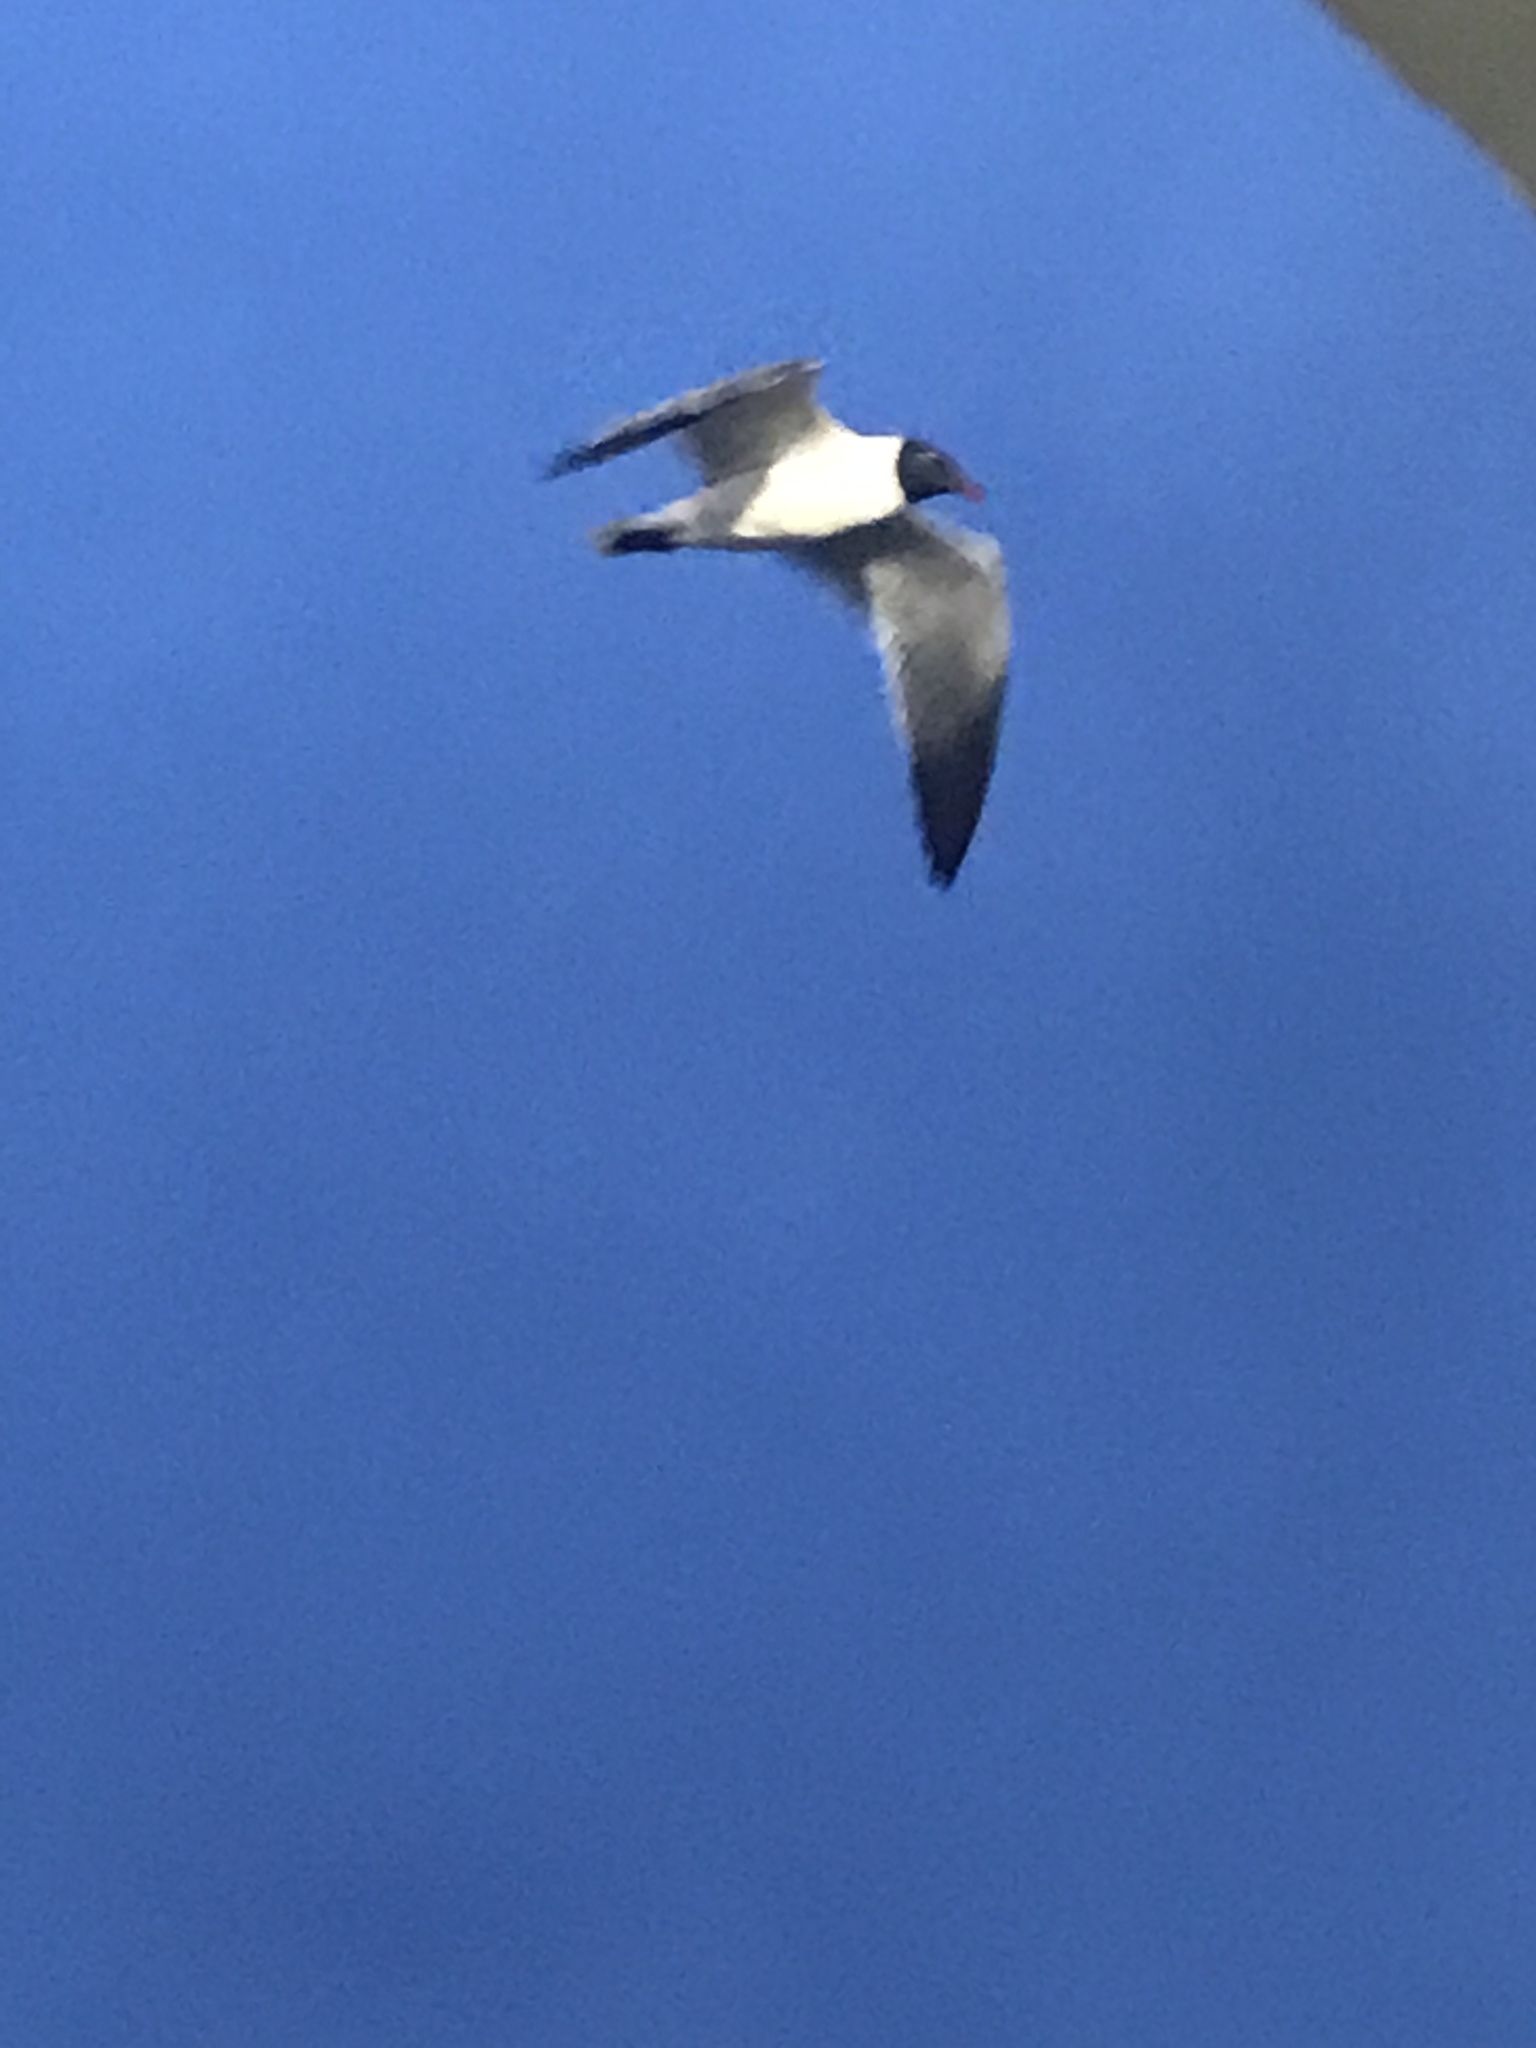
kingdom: Animalia
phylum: Chordata
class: Aves
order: Charadriiformes
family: Laridae
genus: Leucophaeus
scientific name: Leucophaeus atricilla
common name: Laughing gull
